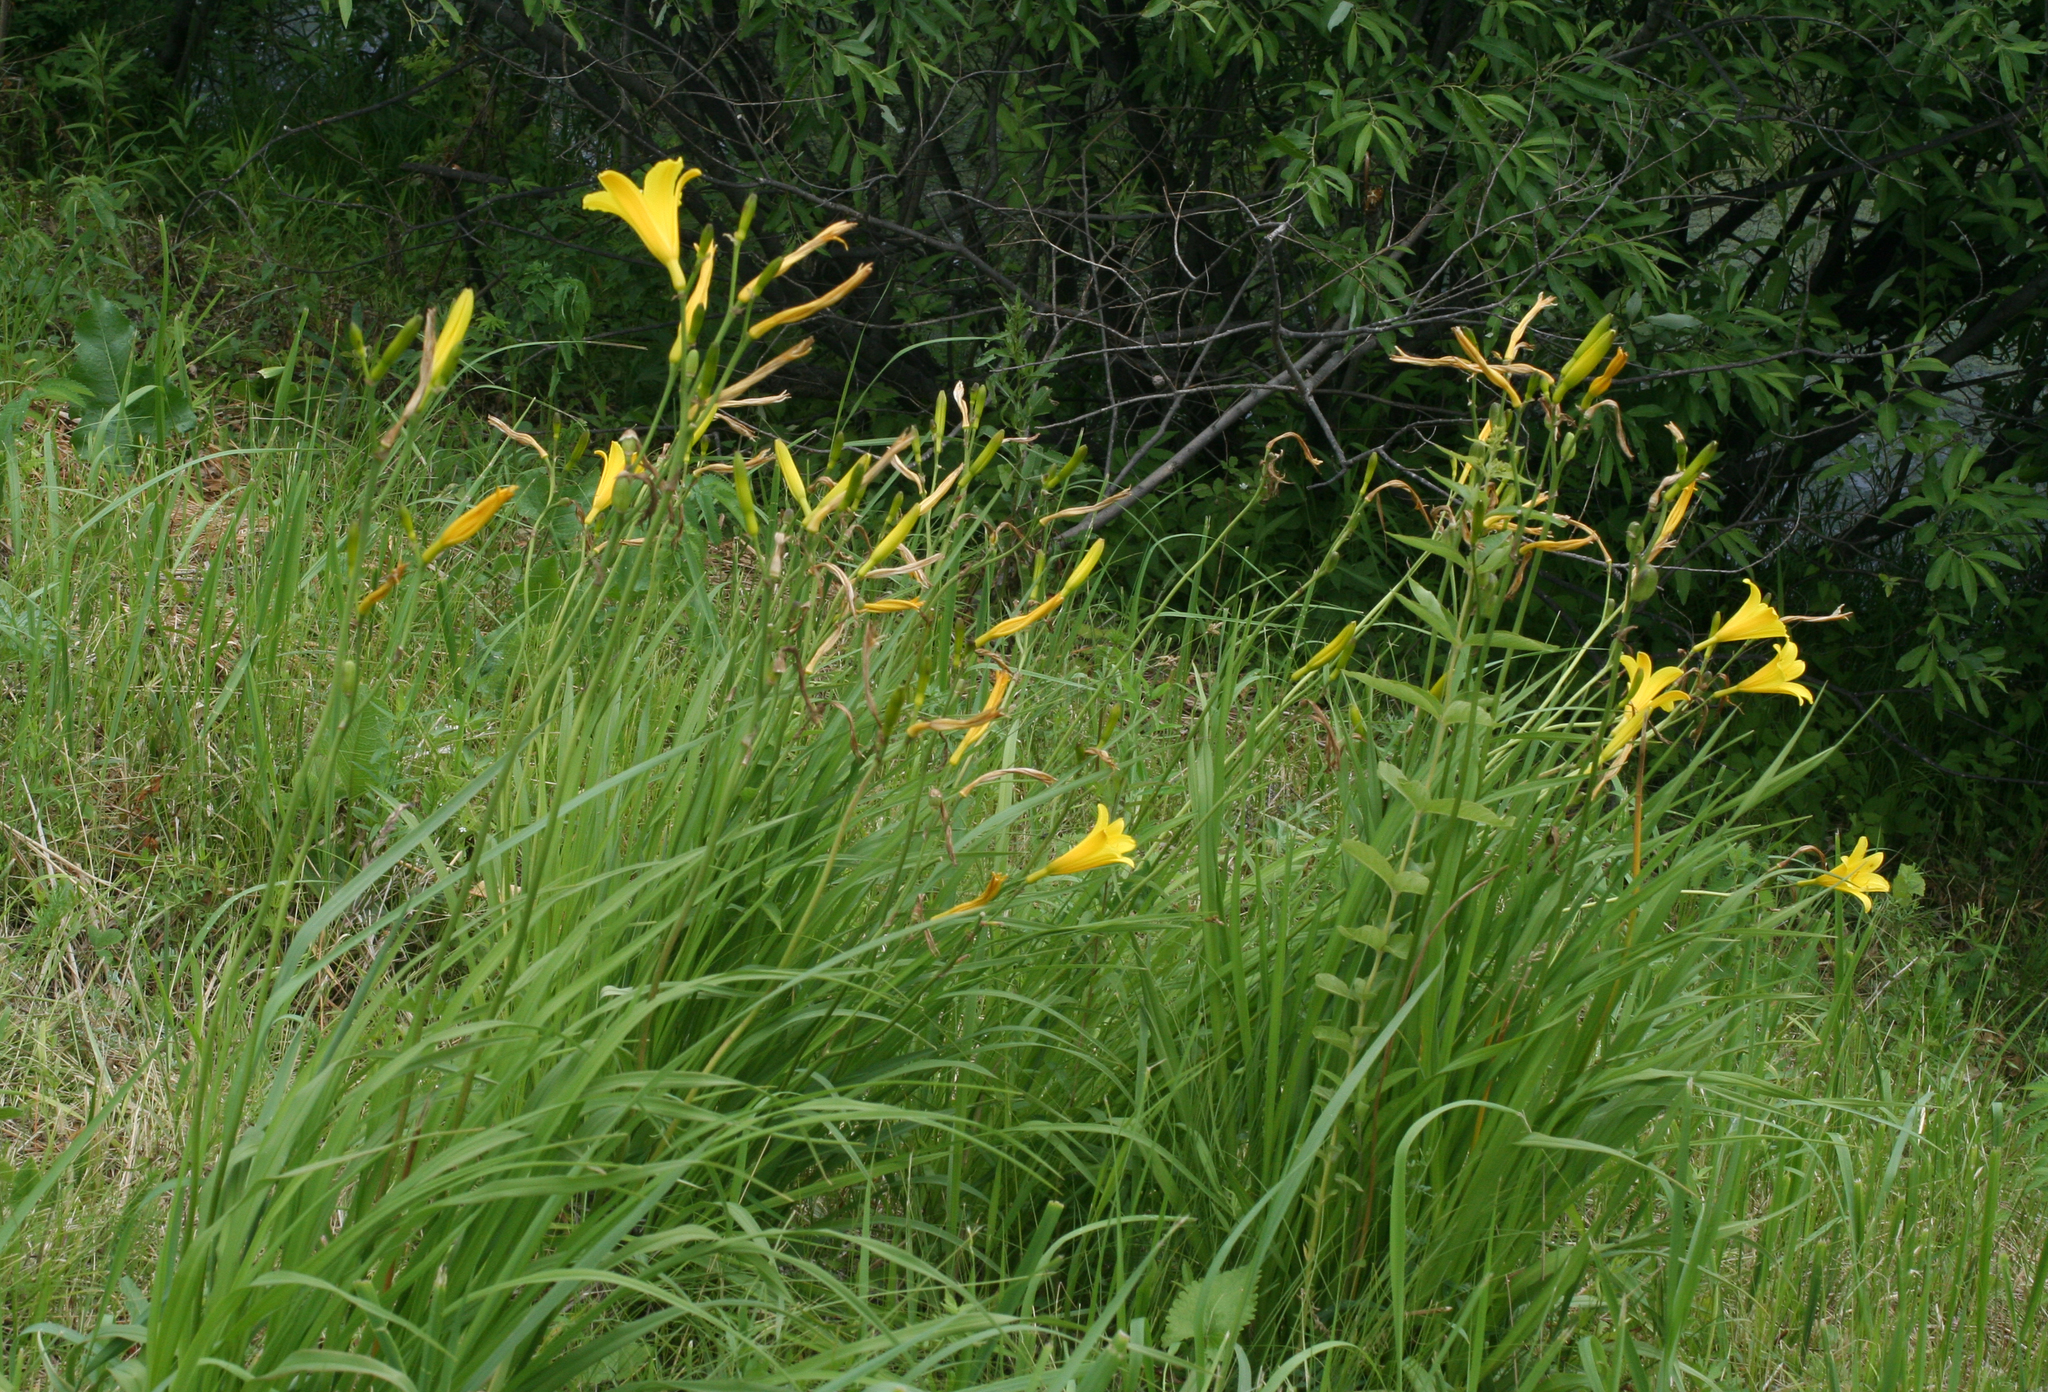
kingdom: Plantae
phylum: Tracheophyta
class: Liliopsida
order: Asparagales
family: Asphodelaceae
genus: Hemerocallis
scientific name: Hemerocallis minor
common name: Small daylily
